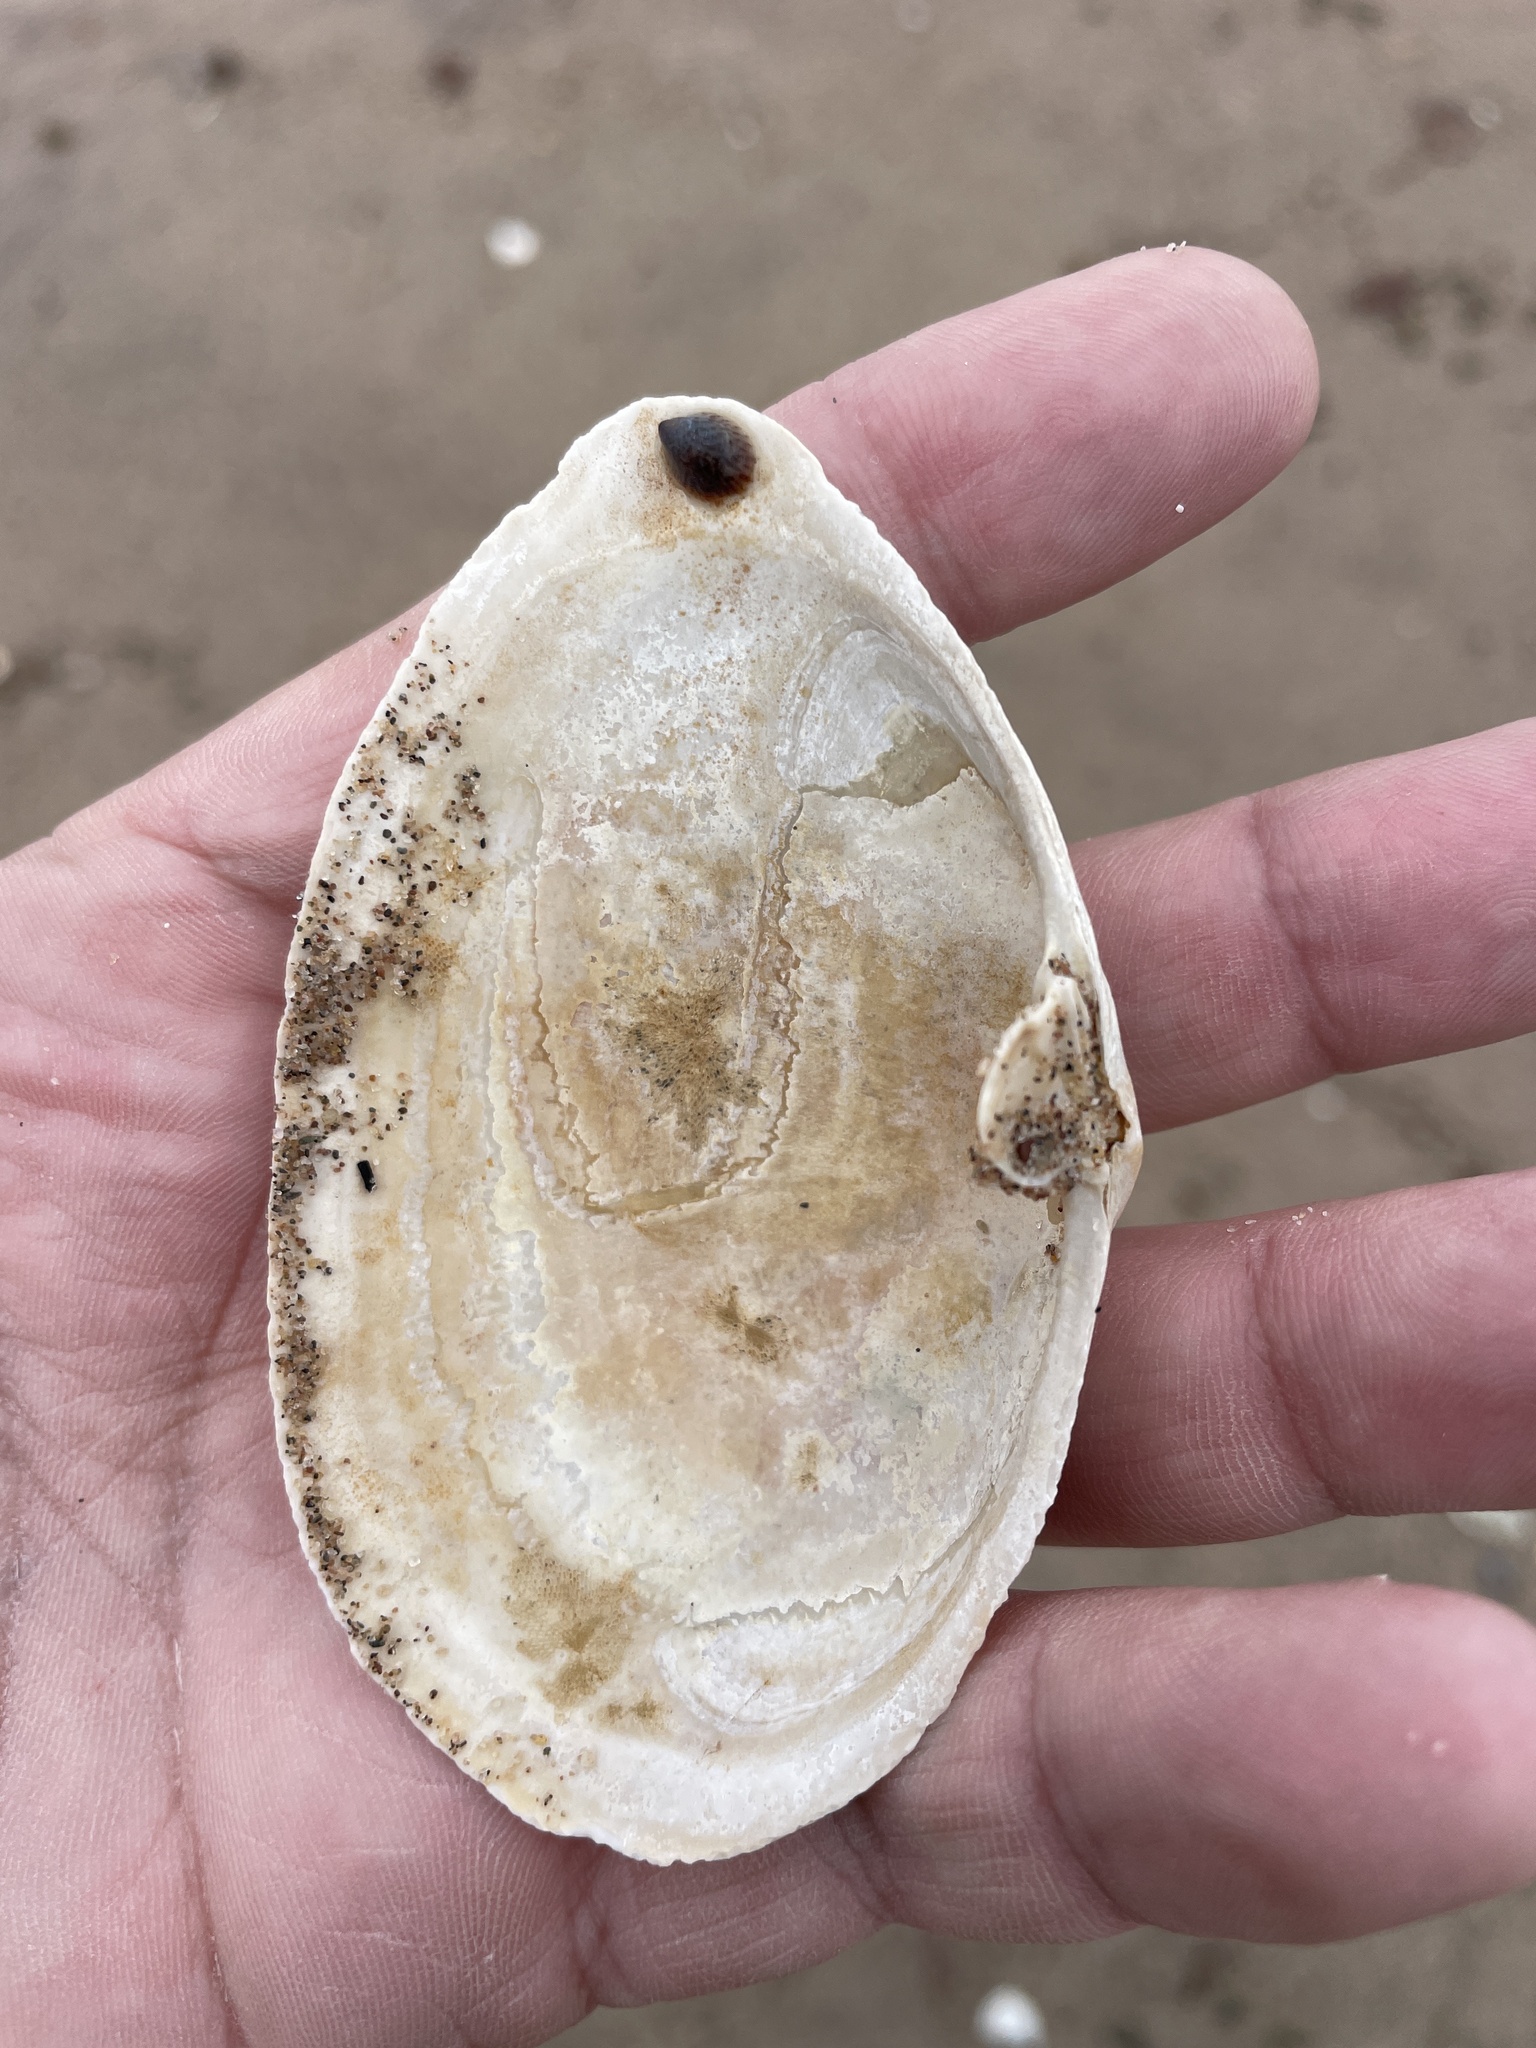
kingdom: Animalia
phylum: Mollusca
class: Bivalvia
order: Myida
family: Myidae
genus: Mya
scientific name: Mya arenaria
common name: Soft-shelled clam
